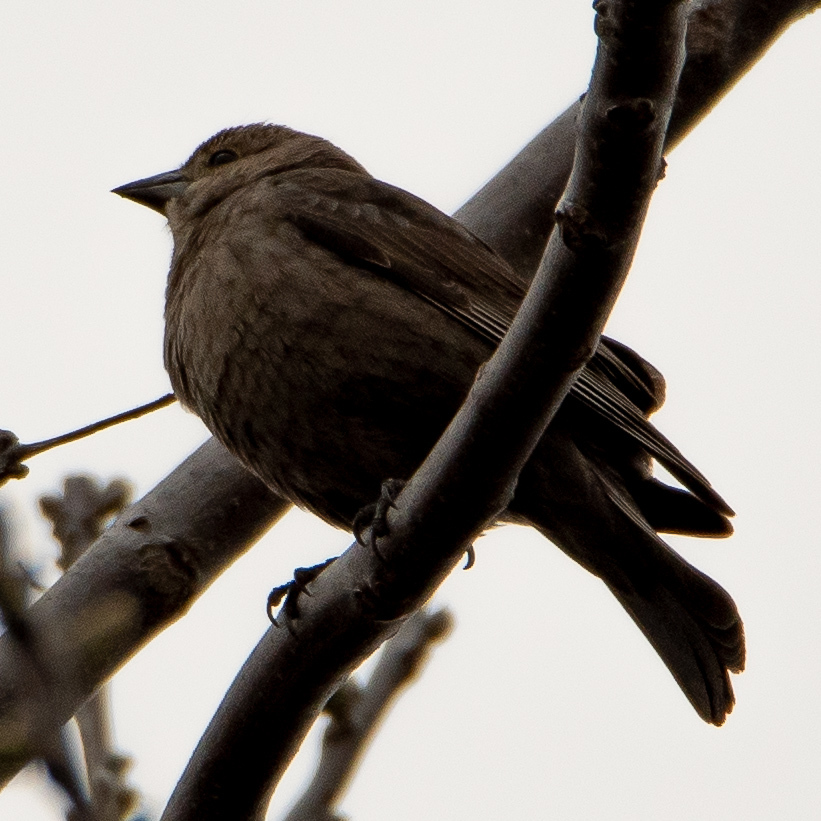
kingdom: Animalia
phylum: Chordata
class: Aves
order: Passeriformes
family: Icteridae
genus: Molothrus
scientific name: Molothrus ater
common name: Brown-headed cowbird
